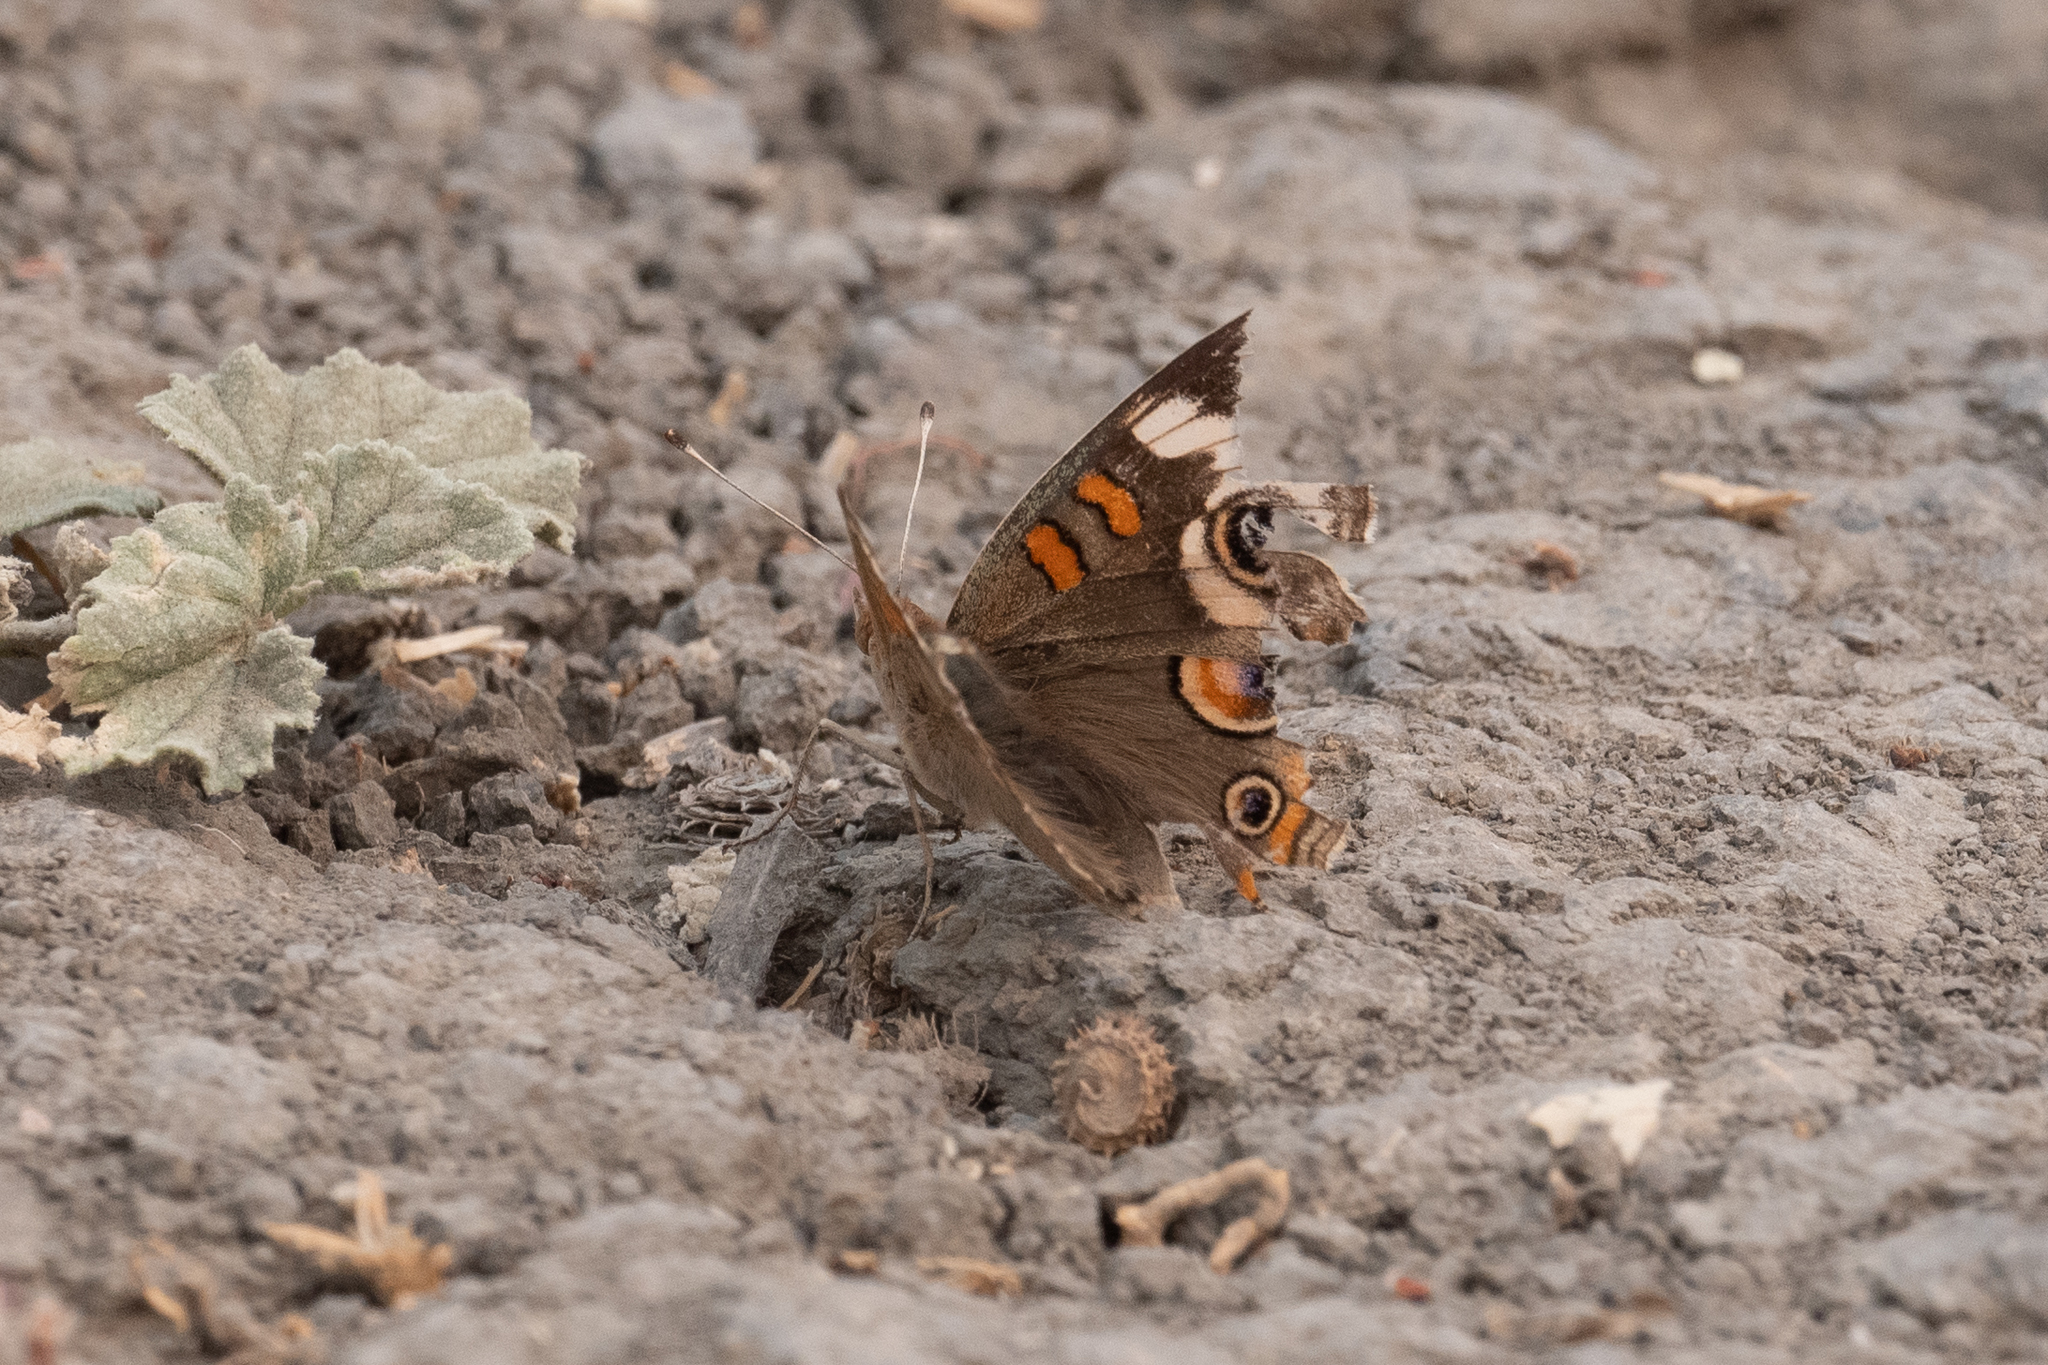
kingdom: Animalia
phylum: Arthropoda
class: Insecta
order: Lepidoptera
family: Nymphalidae
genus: Junonia
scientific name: Junonia grisea
